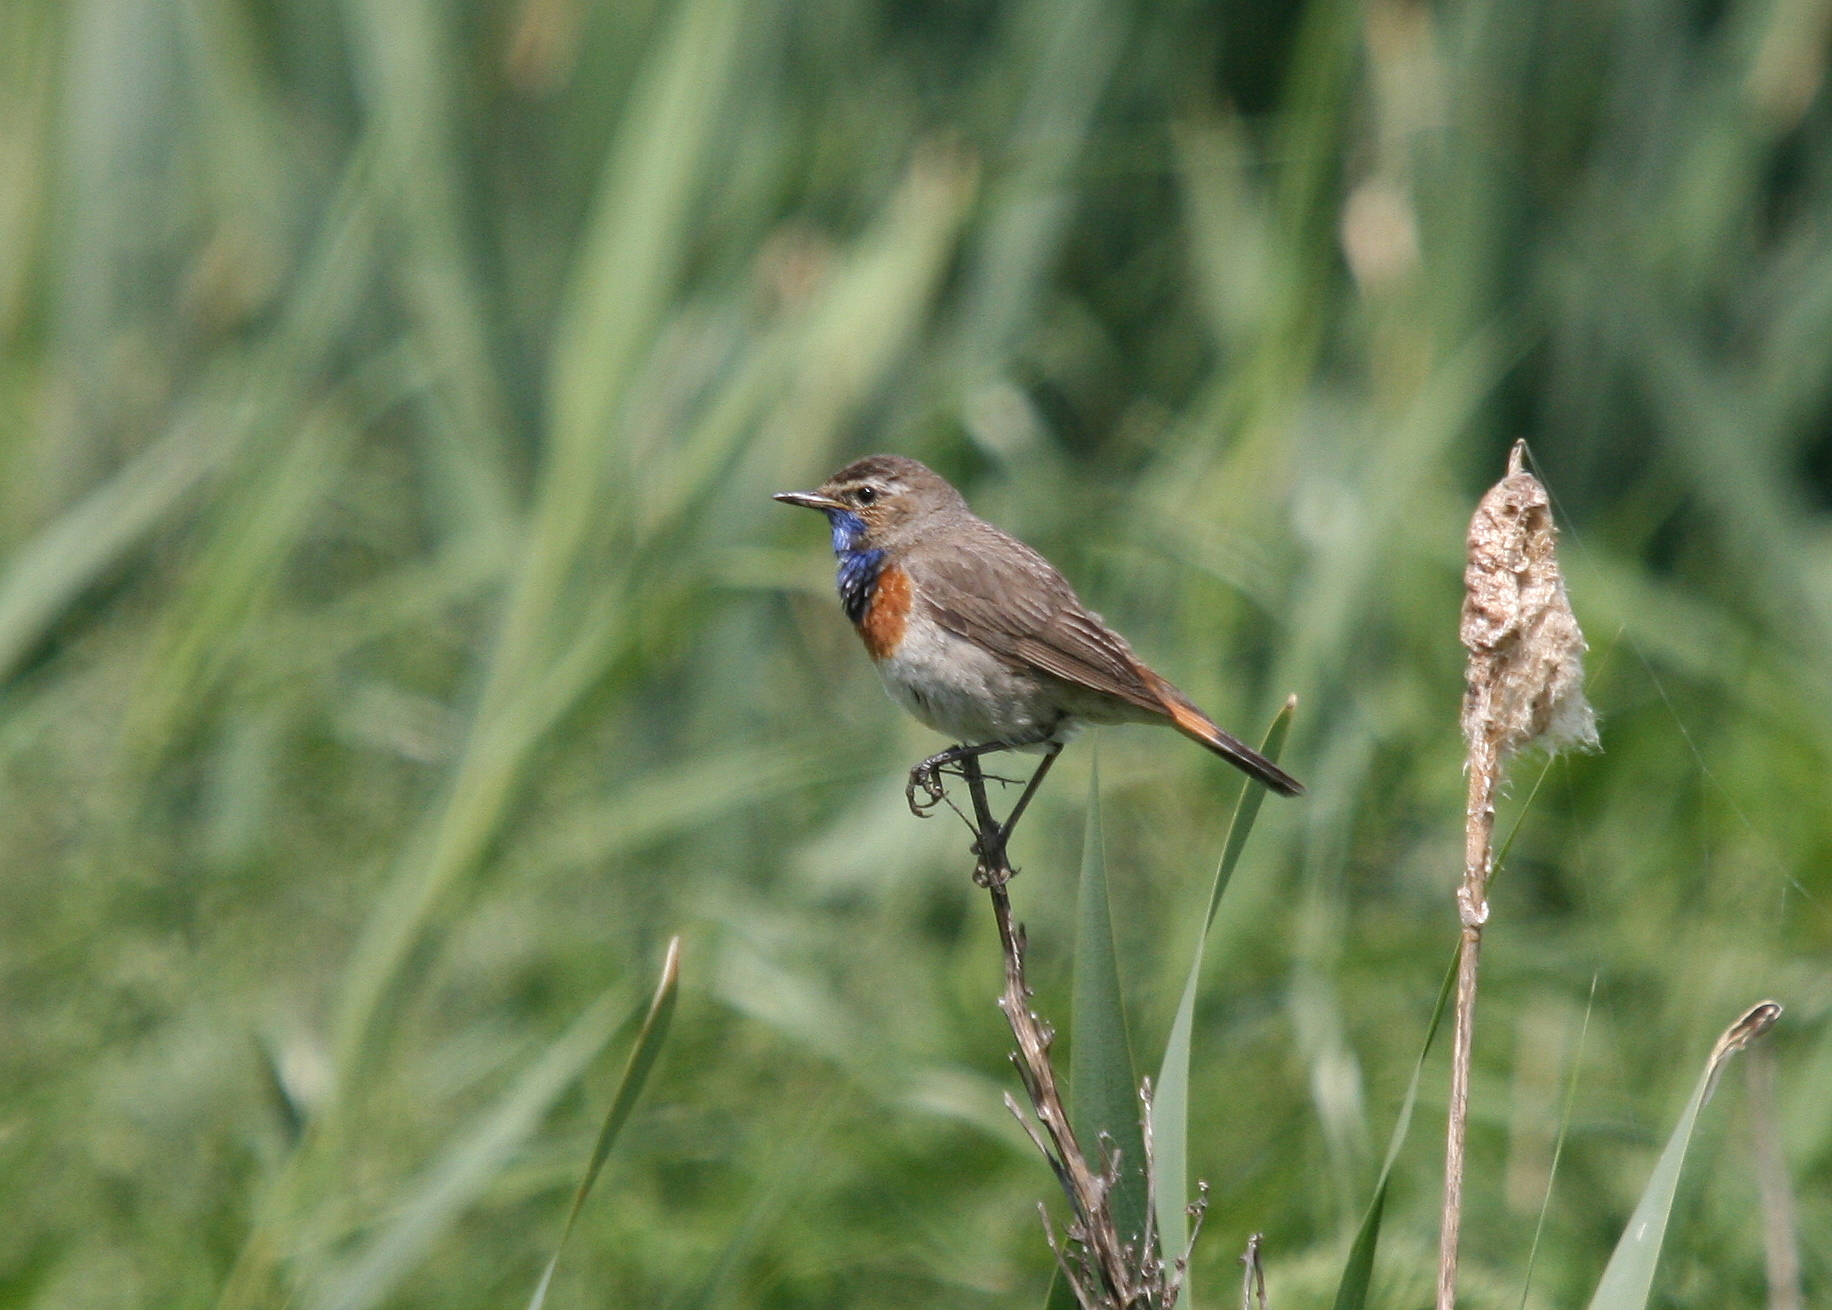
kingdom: Animalia
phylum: Chordata
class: Aves
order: Passeriformes
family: Muscicapidae
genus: Luscinia
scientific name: Luscinia svecica
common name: Bluethroat
